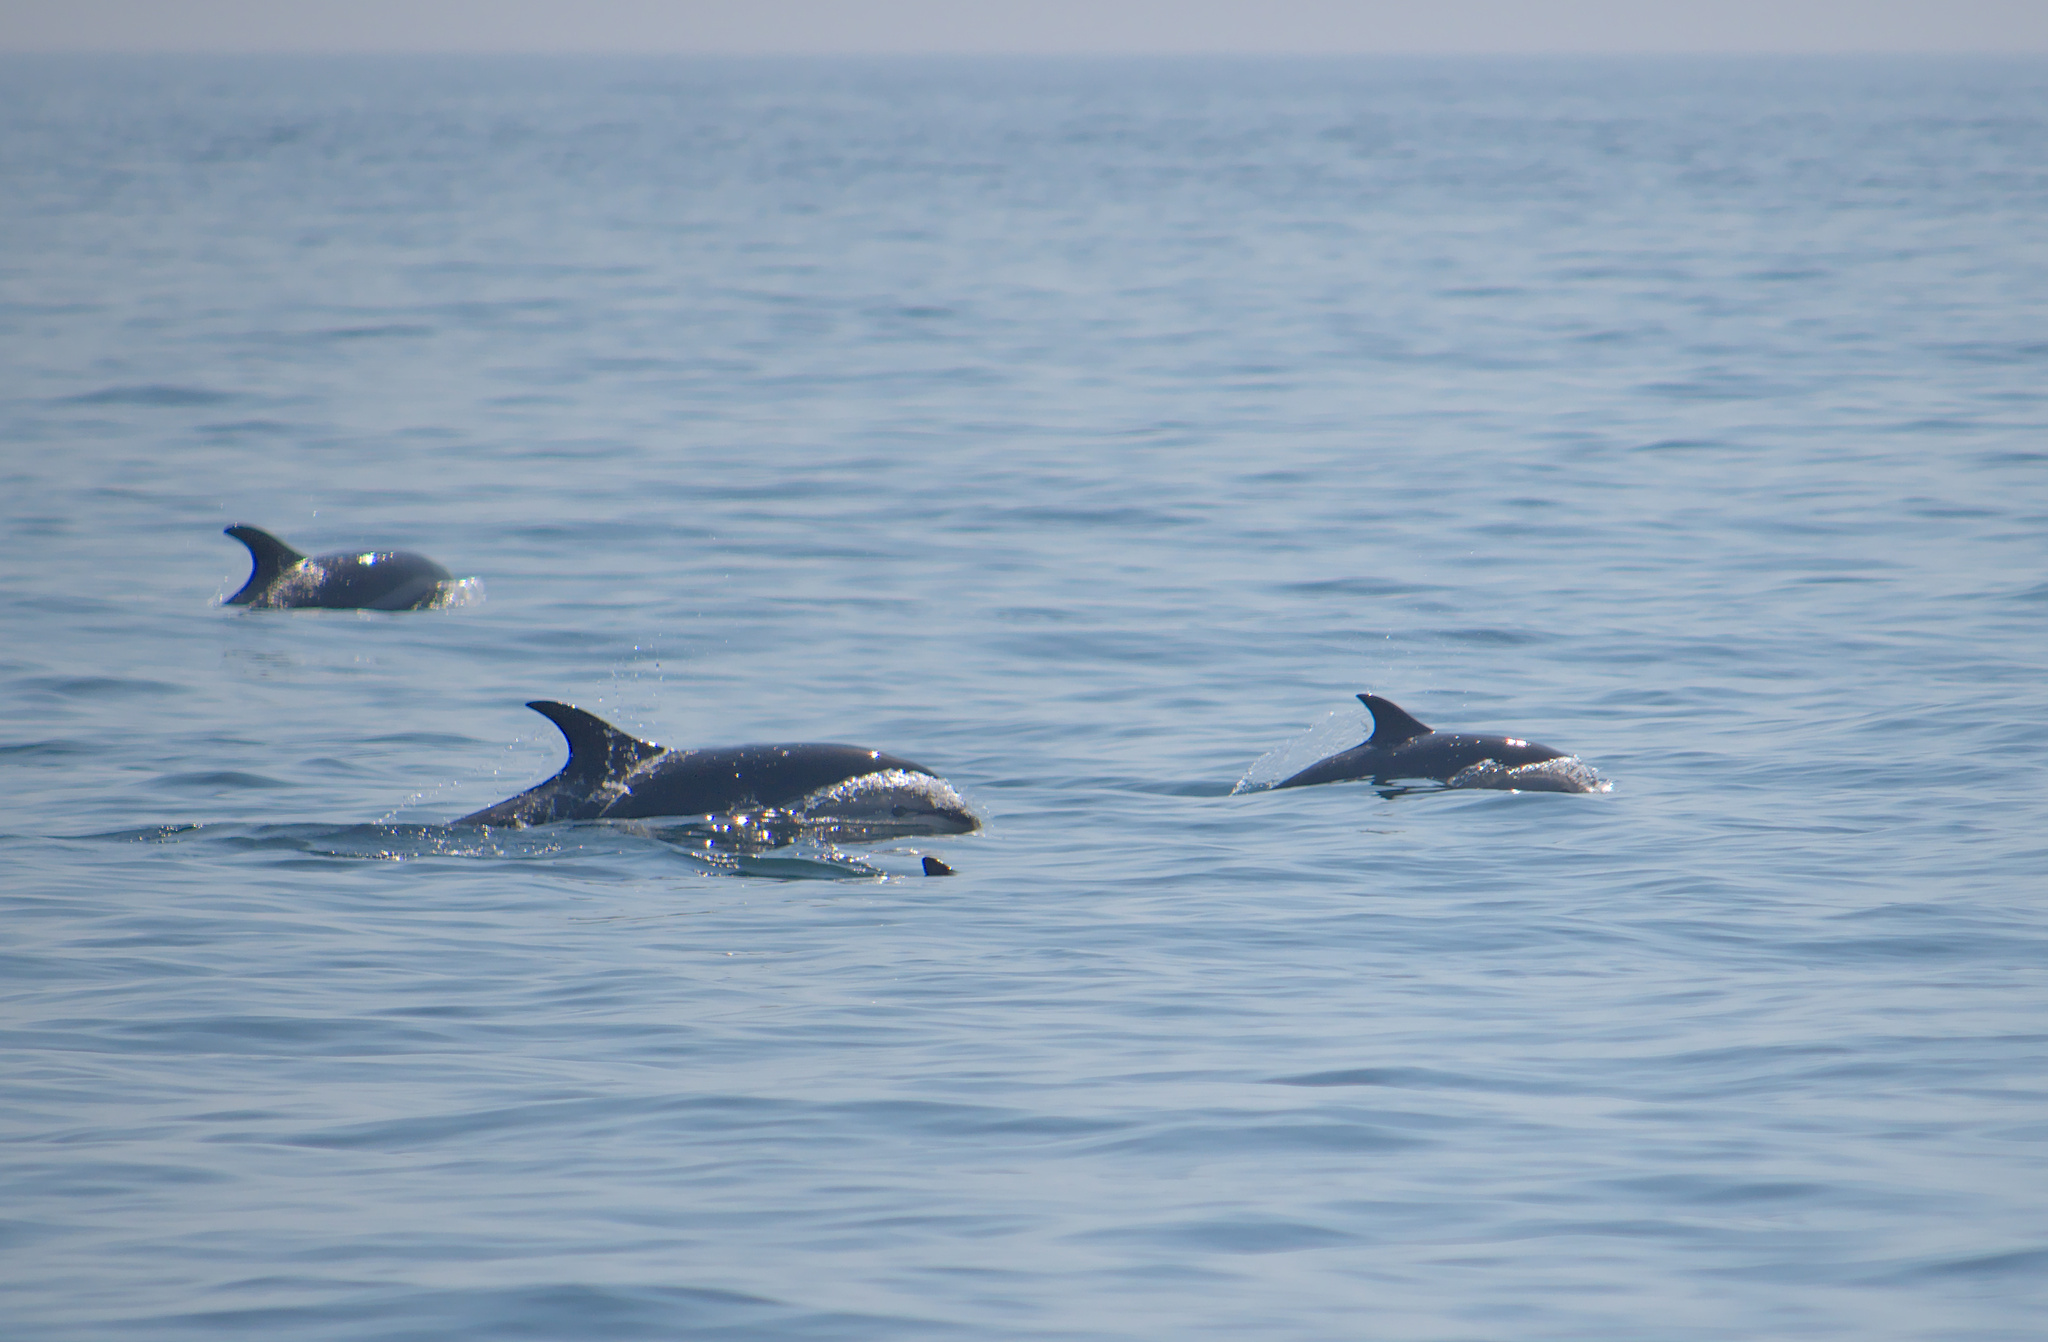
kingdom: Animalia
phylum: Chordata
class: Mammalia
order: Cetacea
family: Delphinidae
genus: Lagenorhynchus
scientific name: Lagenorhynchus acutus
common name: Atlantic white-sided dolphin
